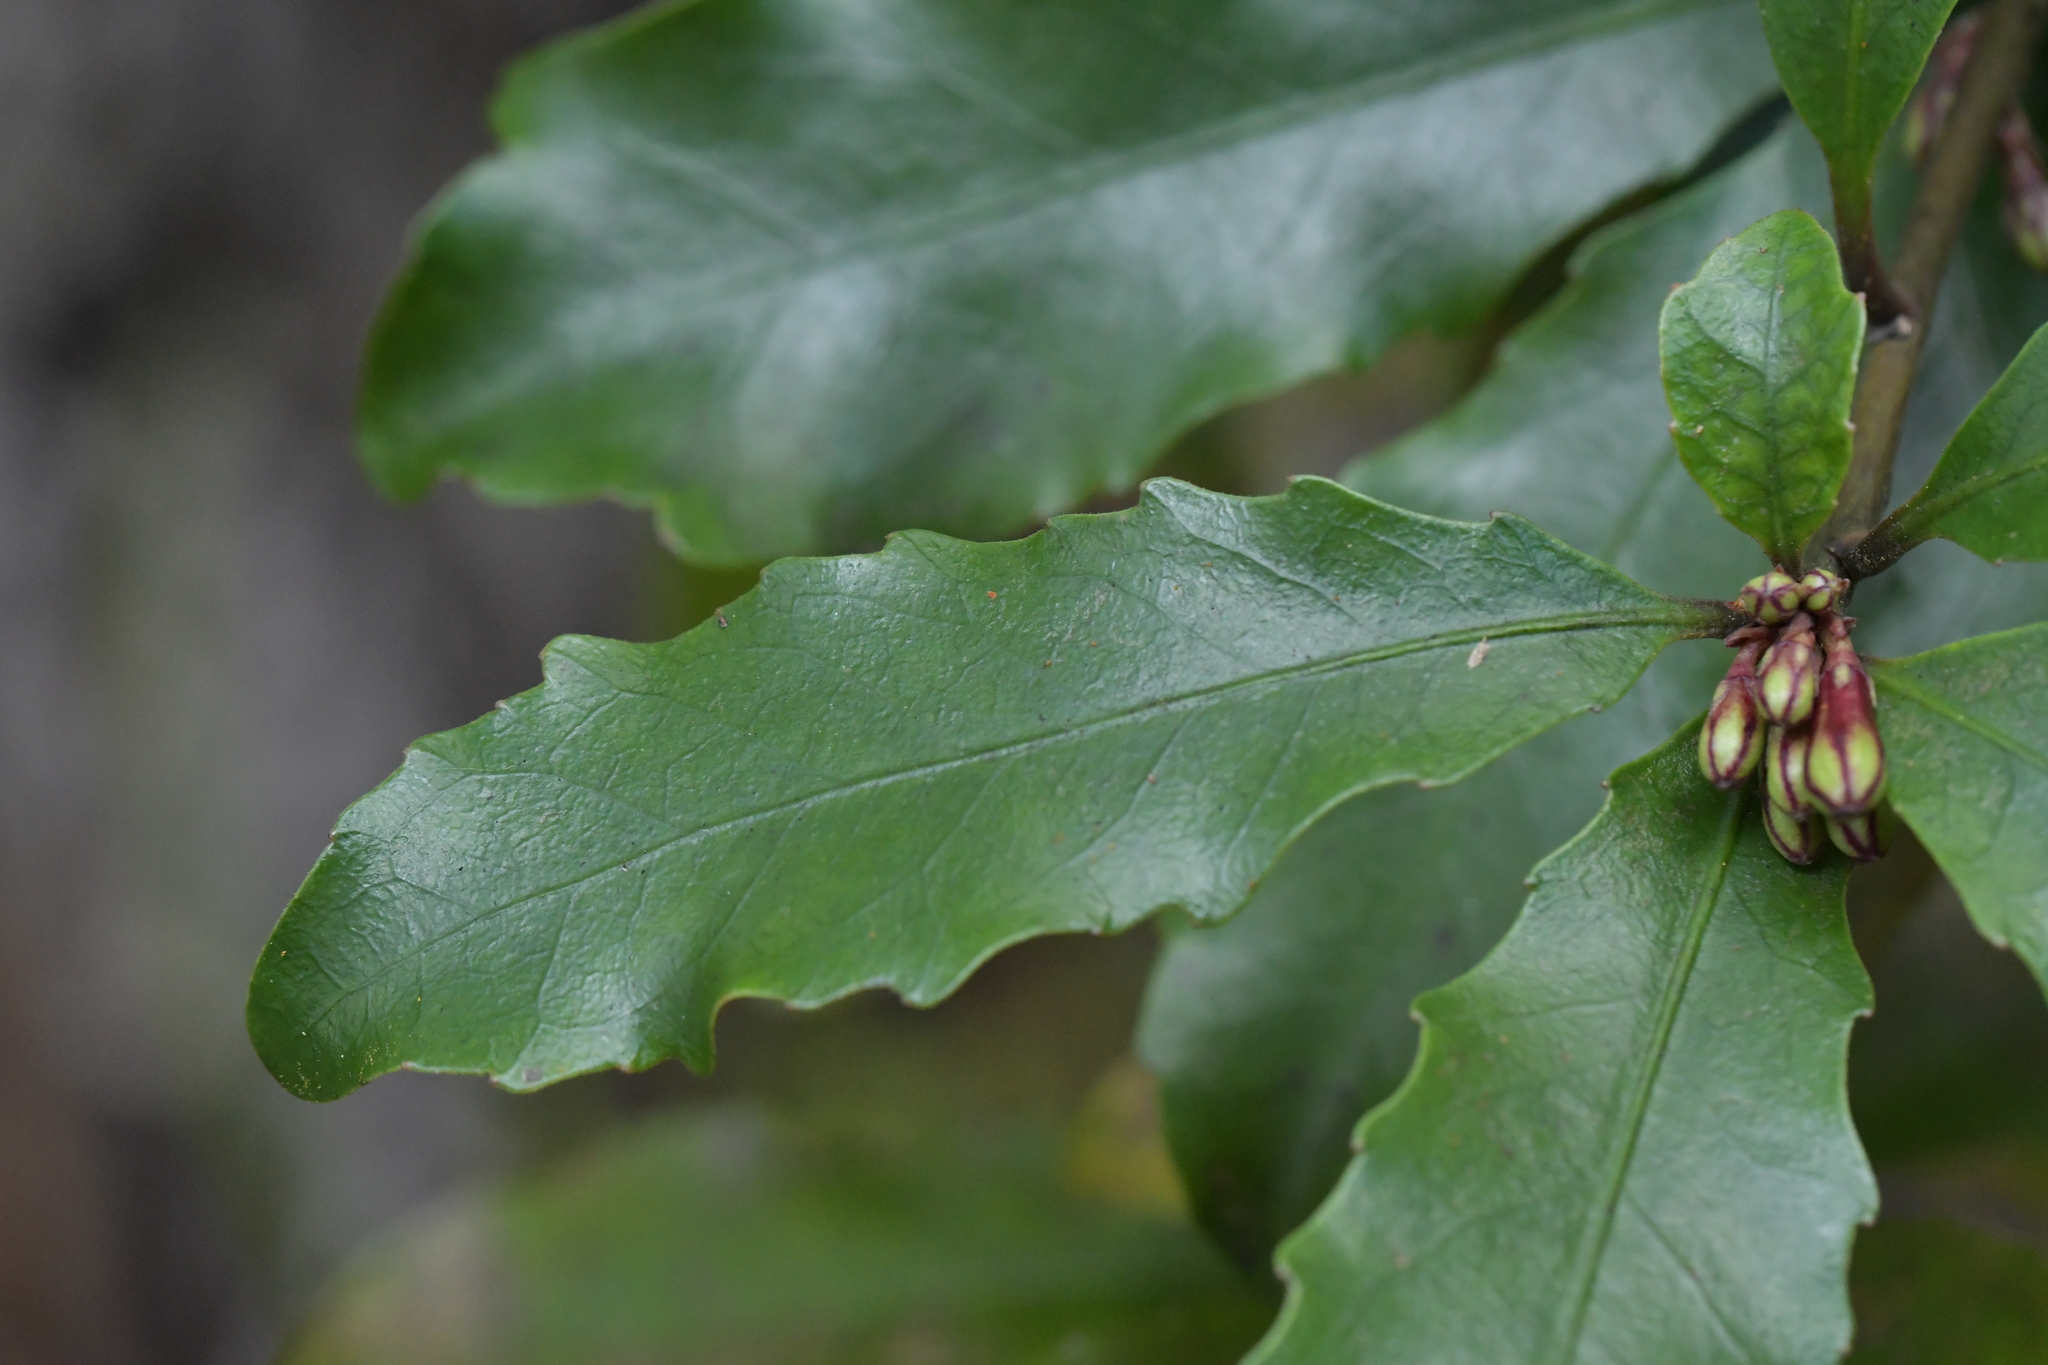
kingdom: Plantae
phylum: Tracheophyta
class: Magnoliopsida
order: Asterales
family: Alseuosmiaceae
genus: Alseuosmia
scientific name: Alseuosmia banksii
